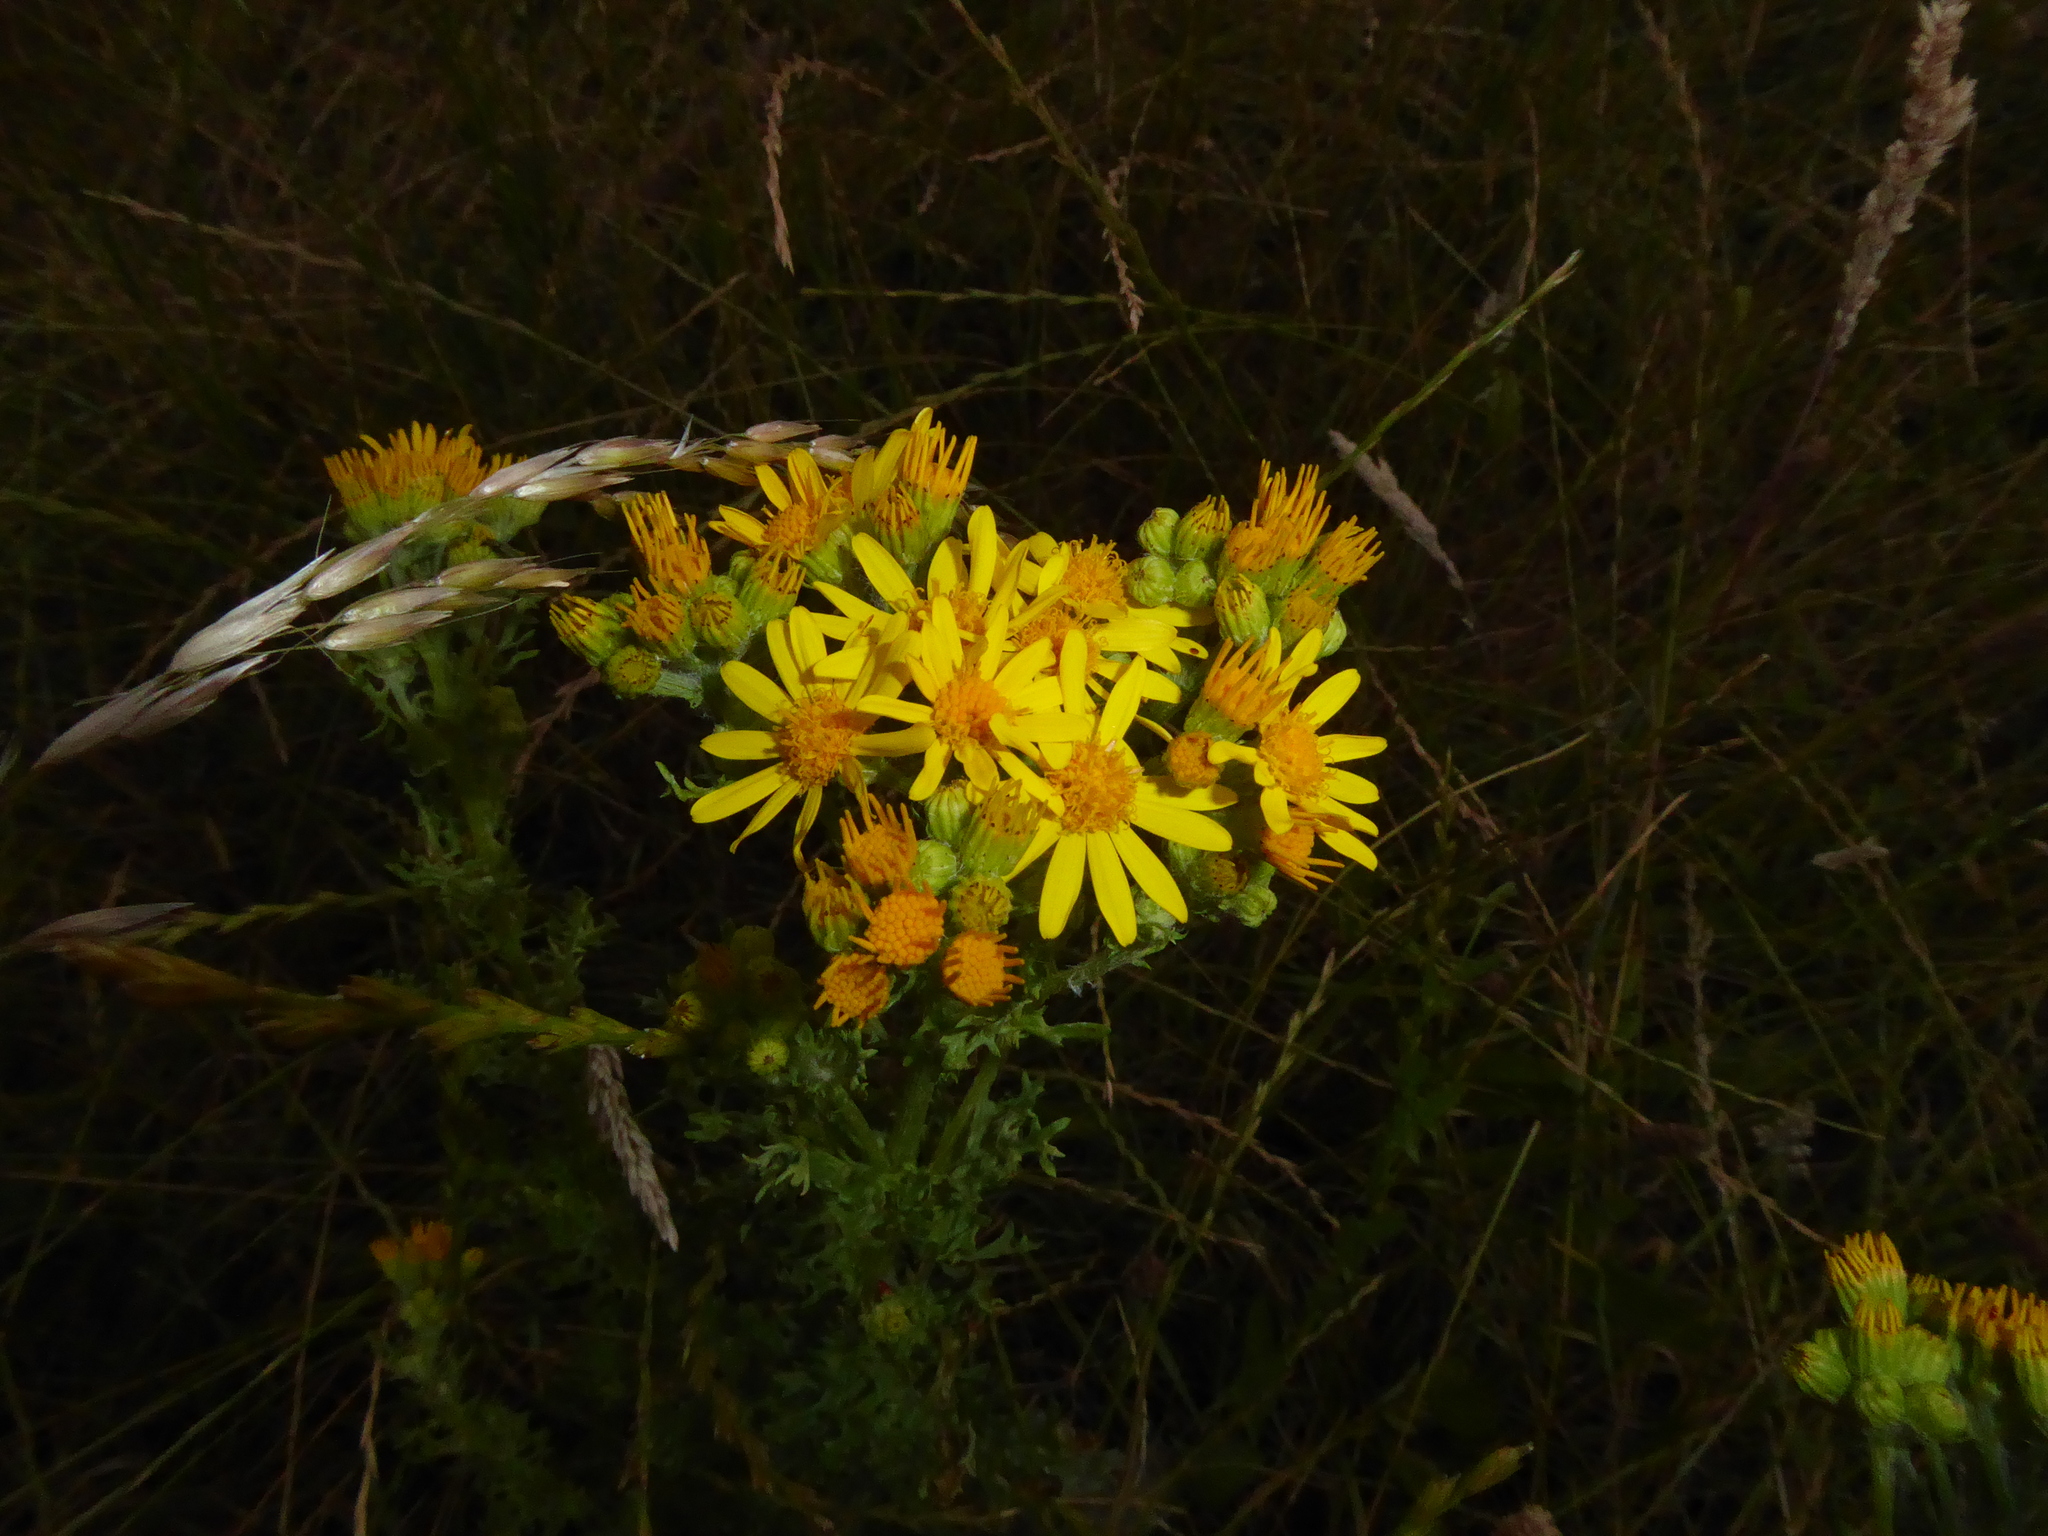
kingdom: Plantae
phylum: Tracheophyta
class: Magnoliopsida
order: Asterales
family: Asteraceae
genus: Jacobaea
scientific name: Jacobaea vulgaris
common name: Stinking willie
